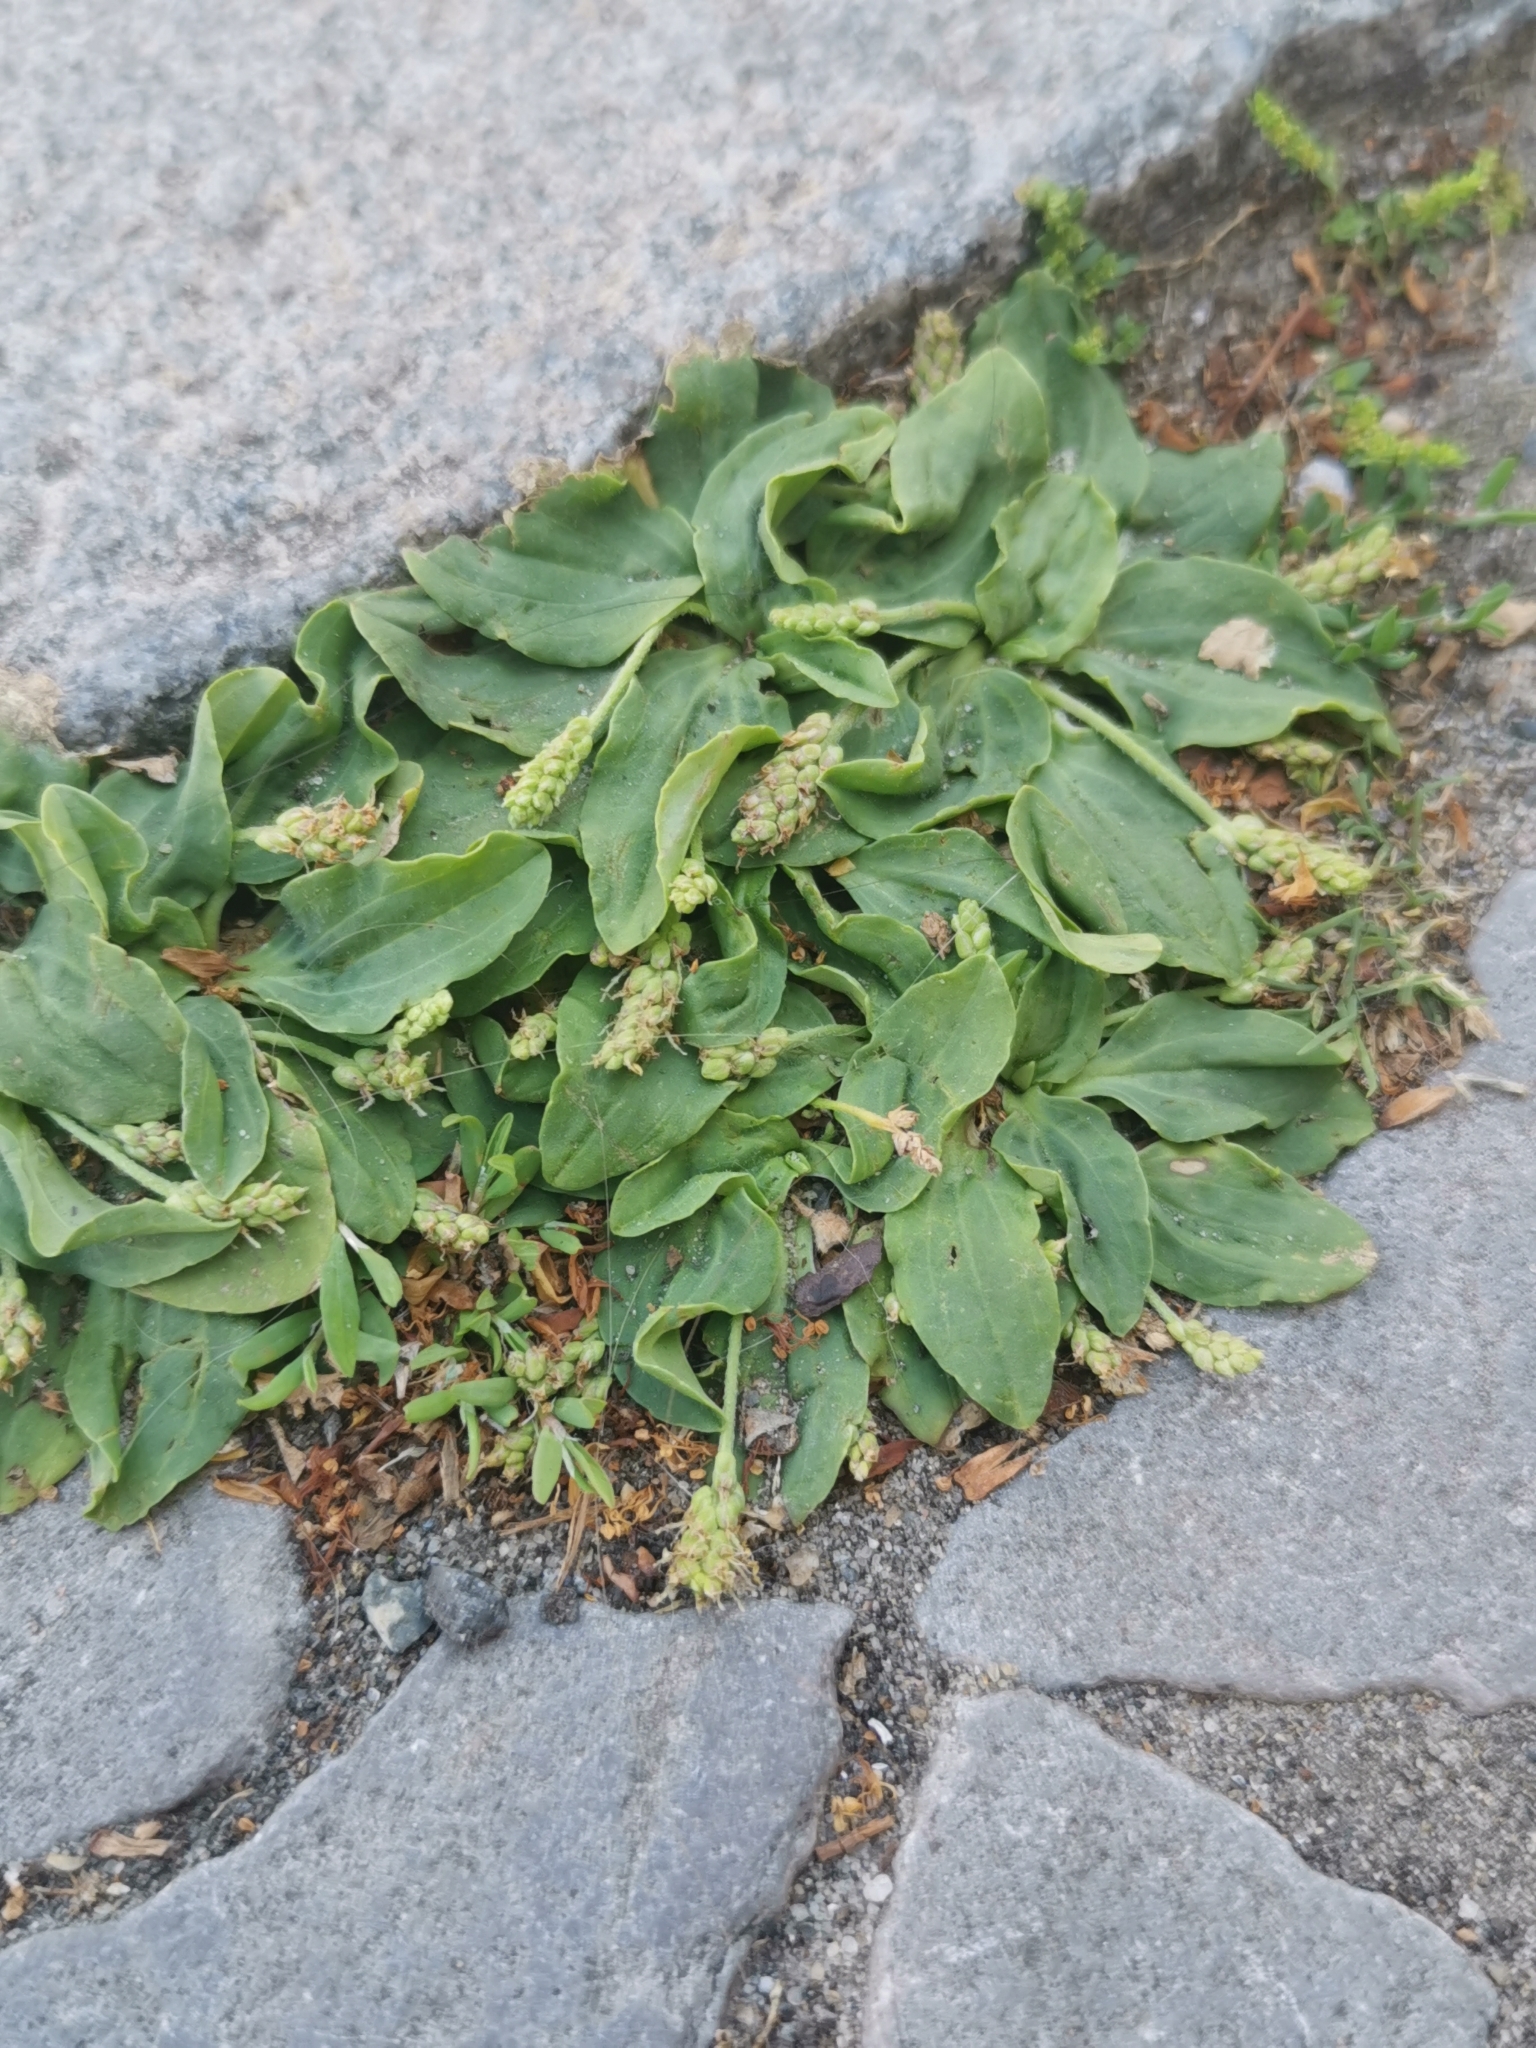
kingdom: Plantae
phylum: Tracheophyta
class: Magnoliopsida
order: Lamiales
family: Plantaginaceae
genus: Plantago
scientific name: Plantago major
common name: Common plantain
